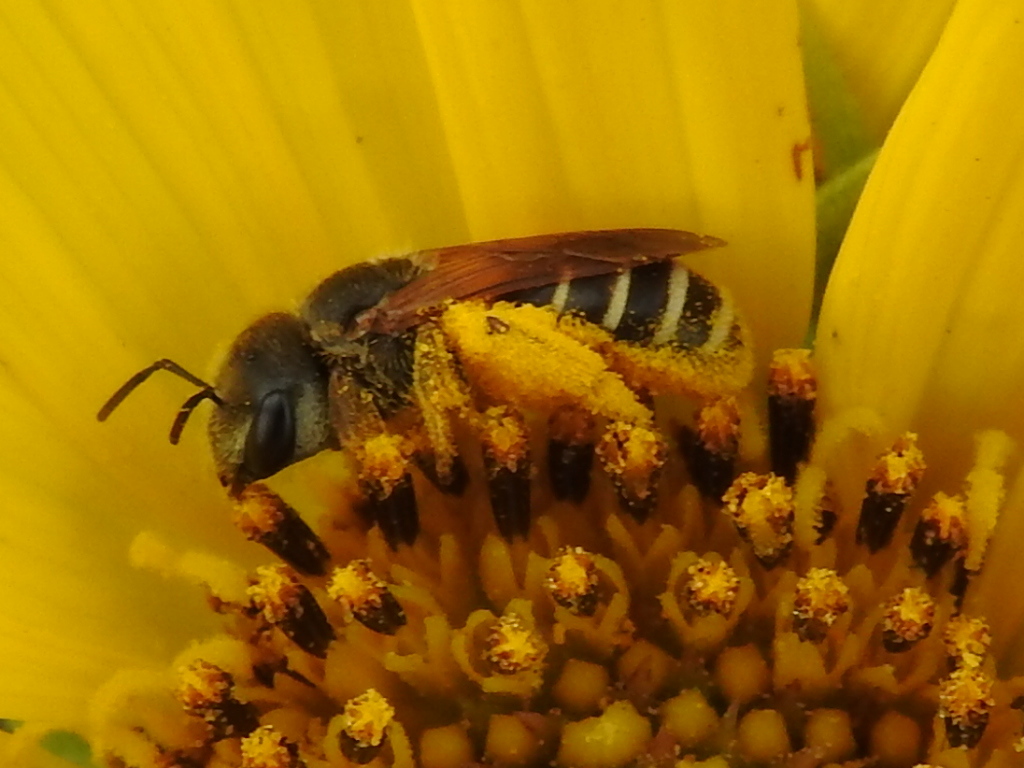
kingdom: Animalia
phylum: Arthropoda
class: Insecta
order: Hymenoptera
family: Halictidae
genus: Halictus
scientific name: Halictus ligatus
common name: Ligated furrow bee
